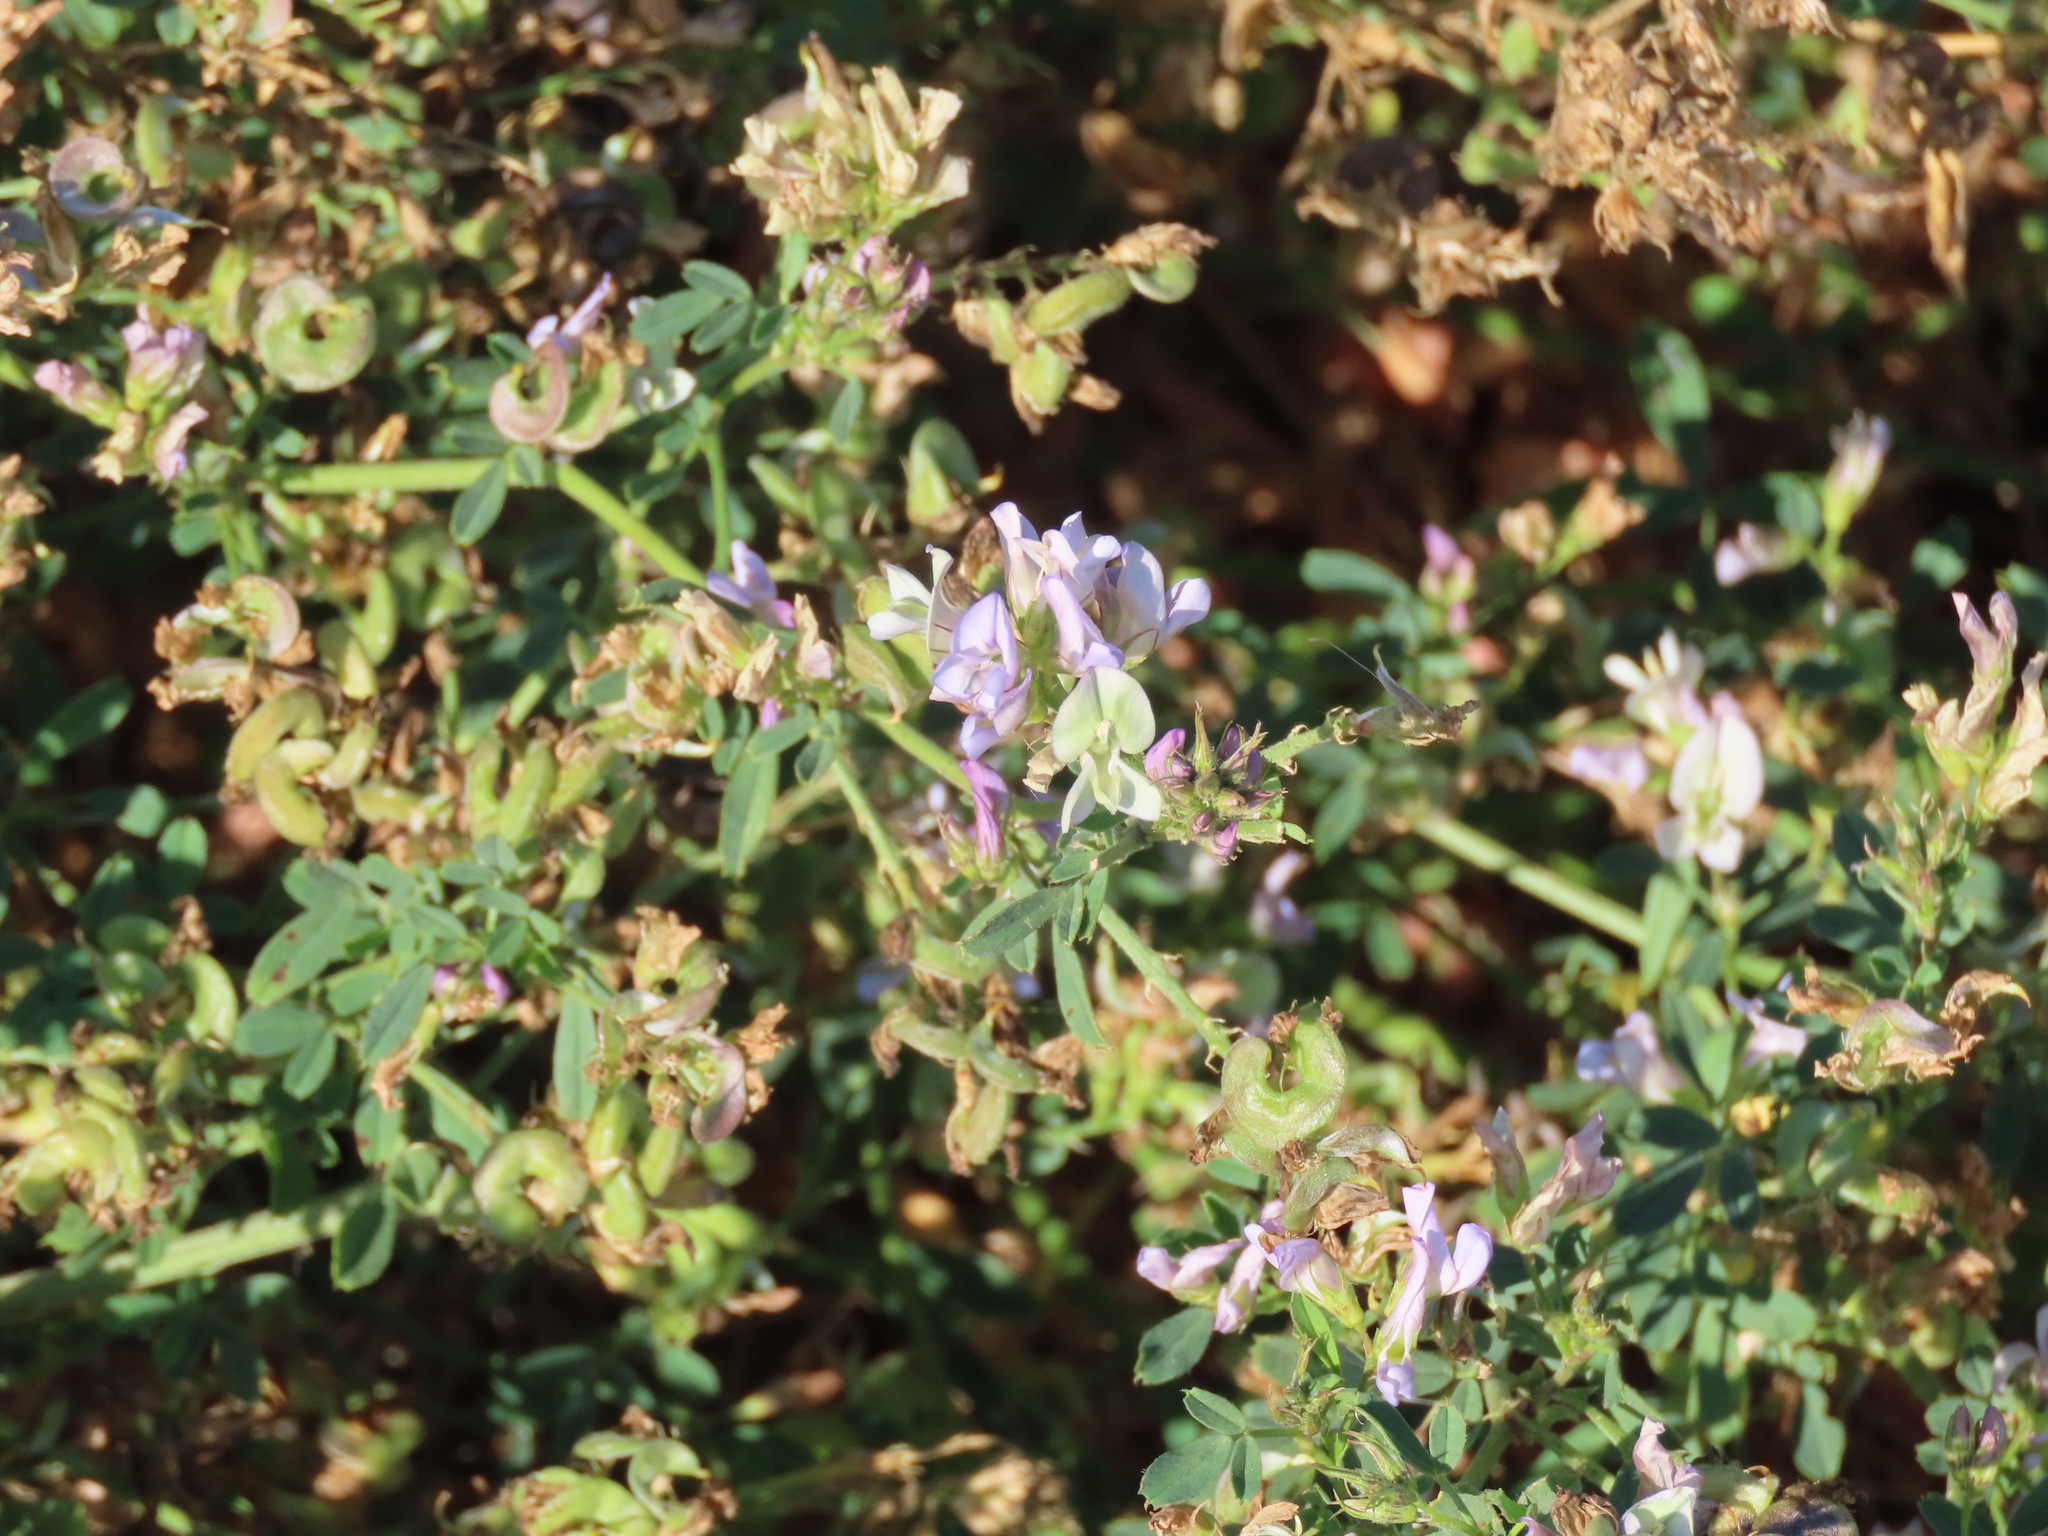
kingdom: Plantae
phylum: Tracheophyta
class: Magnoliopsida
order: Fabales
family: Fabaceae
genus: Medicago
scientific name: Medicago sativa
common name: Alfalfa
